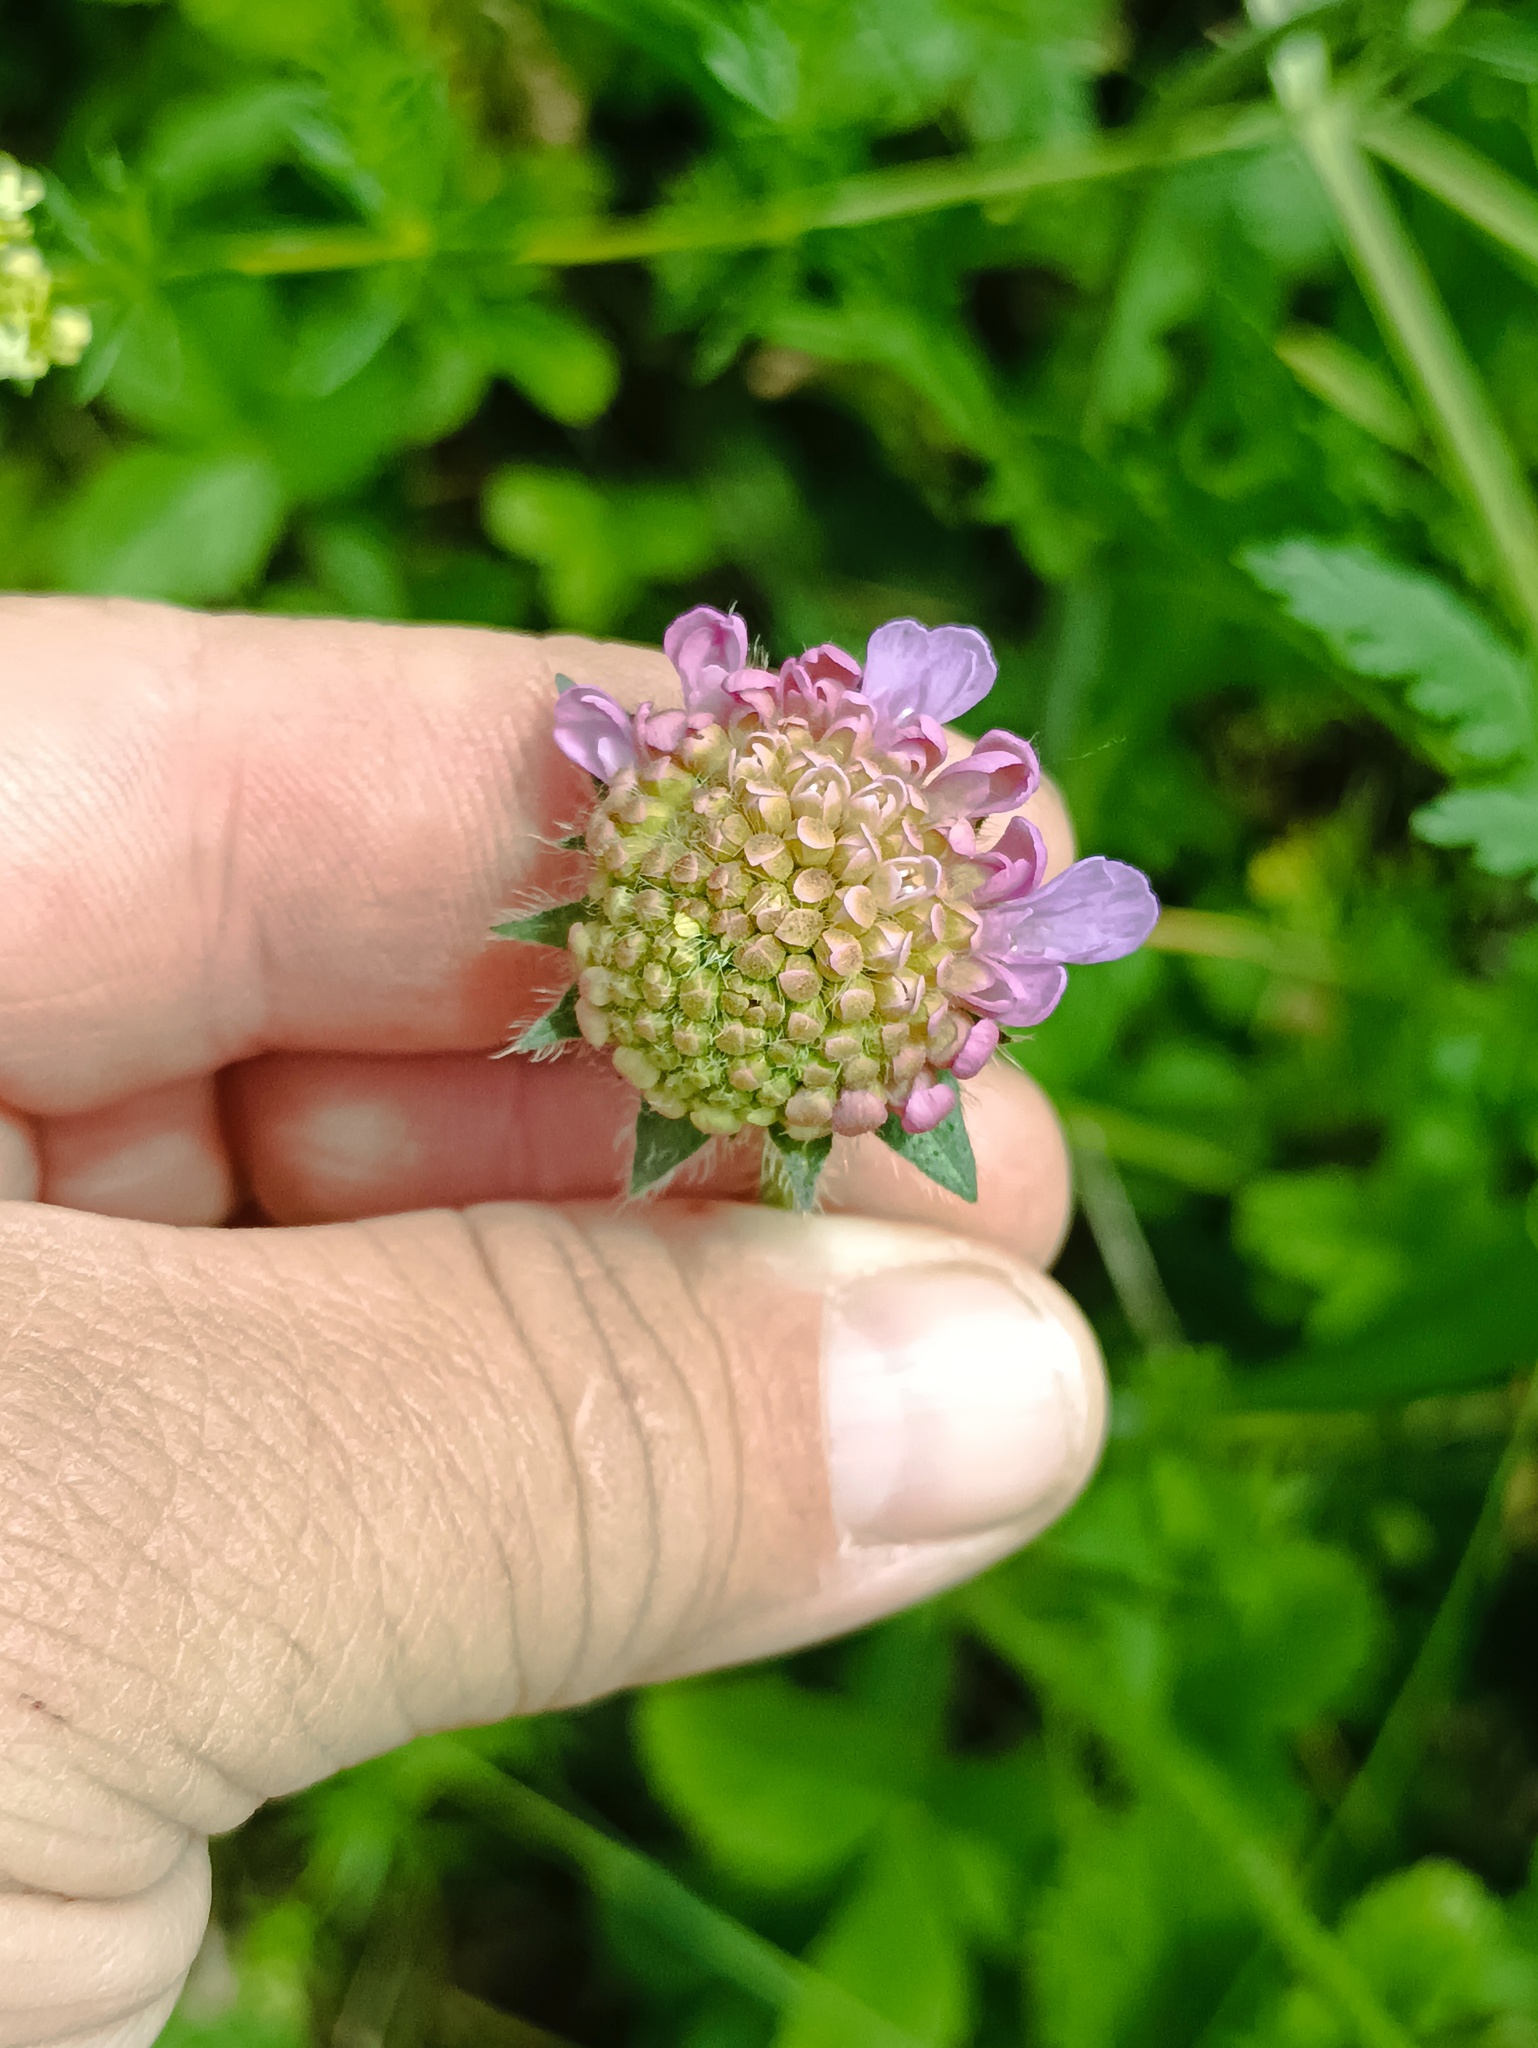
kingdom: Plantae
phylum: Tracheophyta
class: Magnoliopsida
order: Dipsacales
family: Caprifoliaceae
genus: Knautia
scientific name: Knautia arvensis
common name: Field scabiosa
